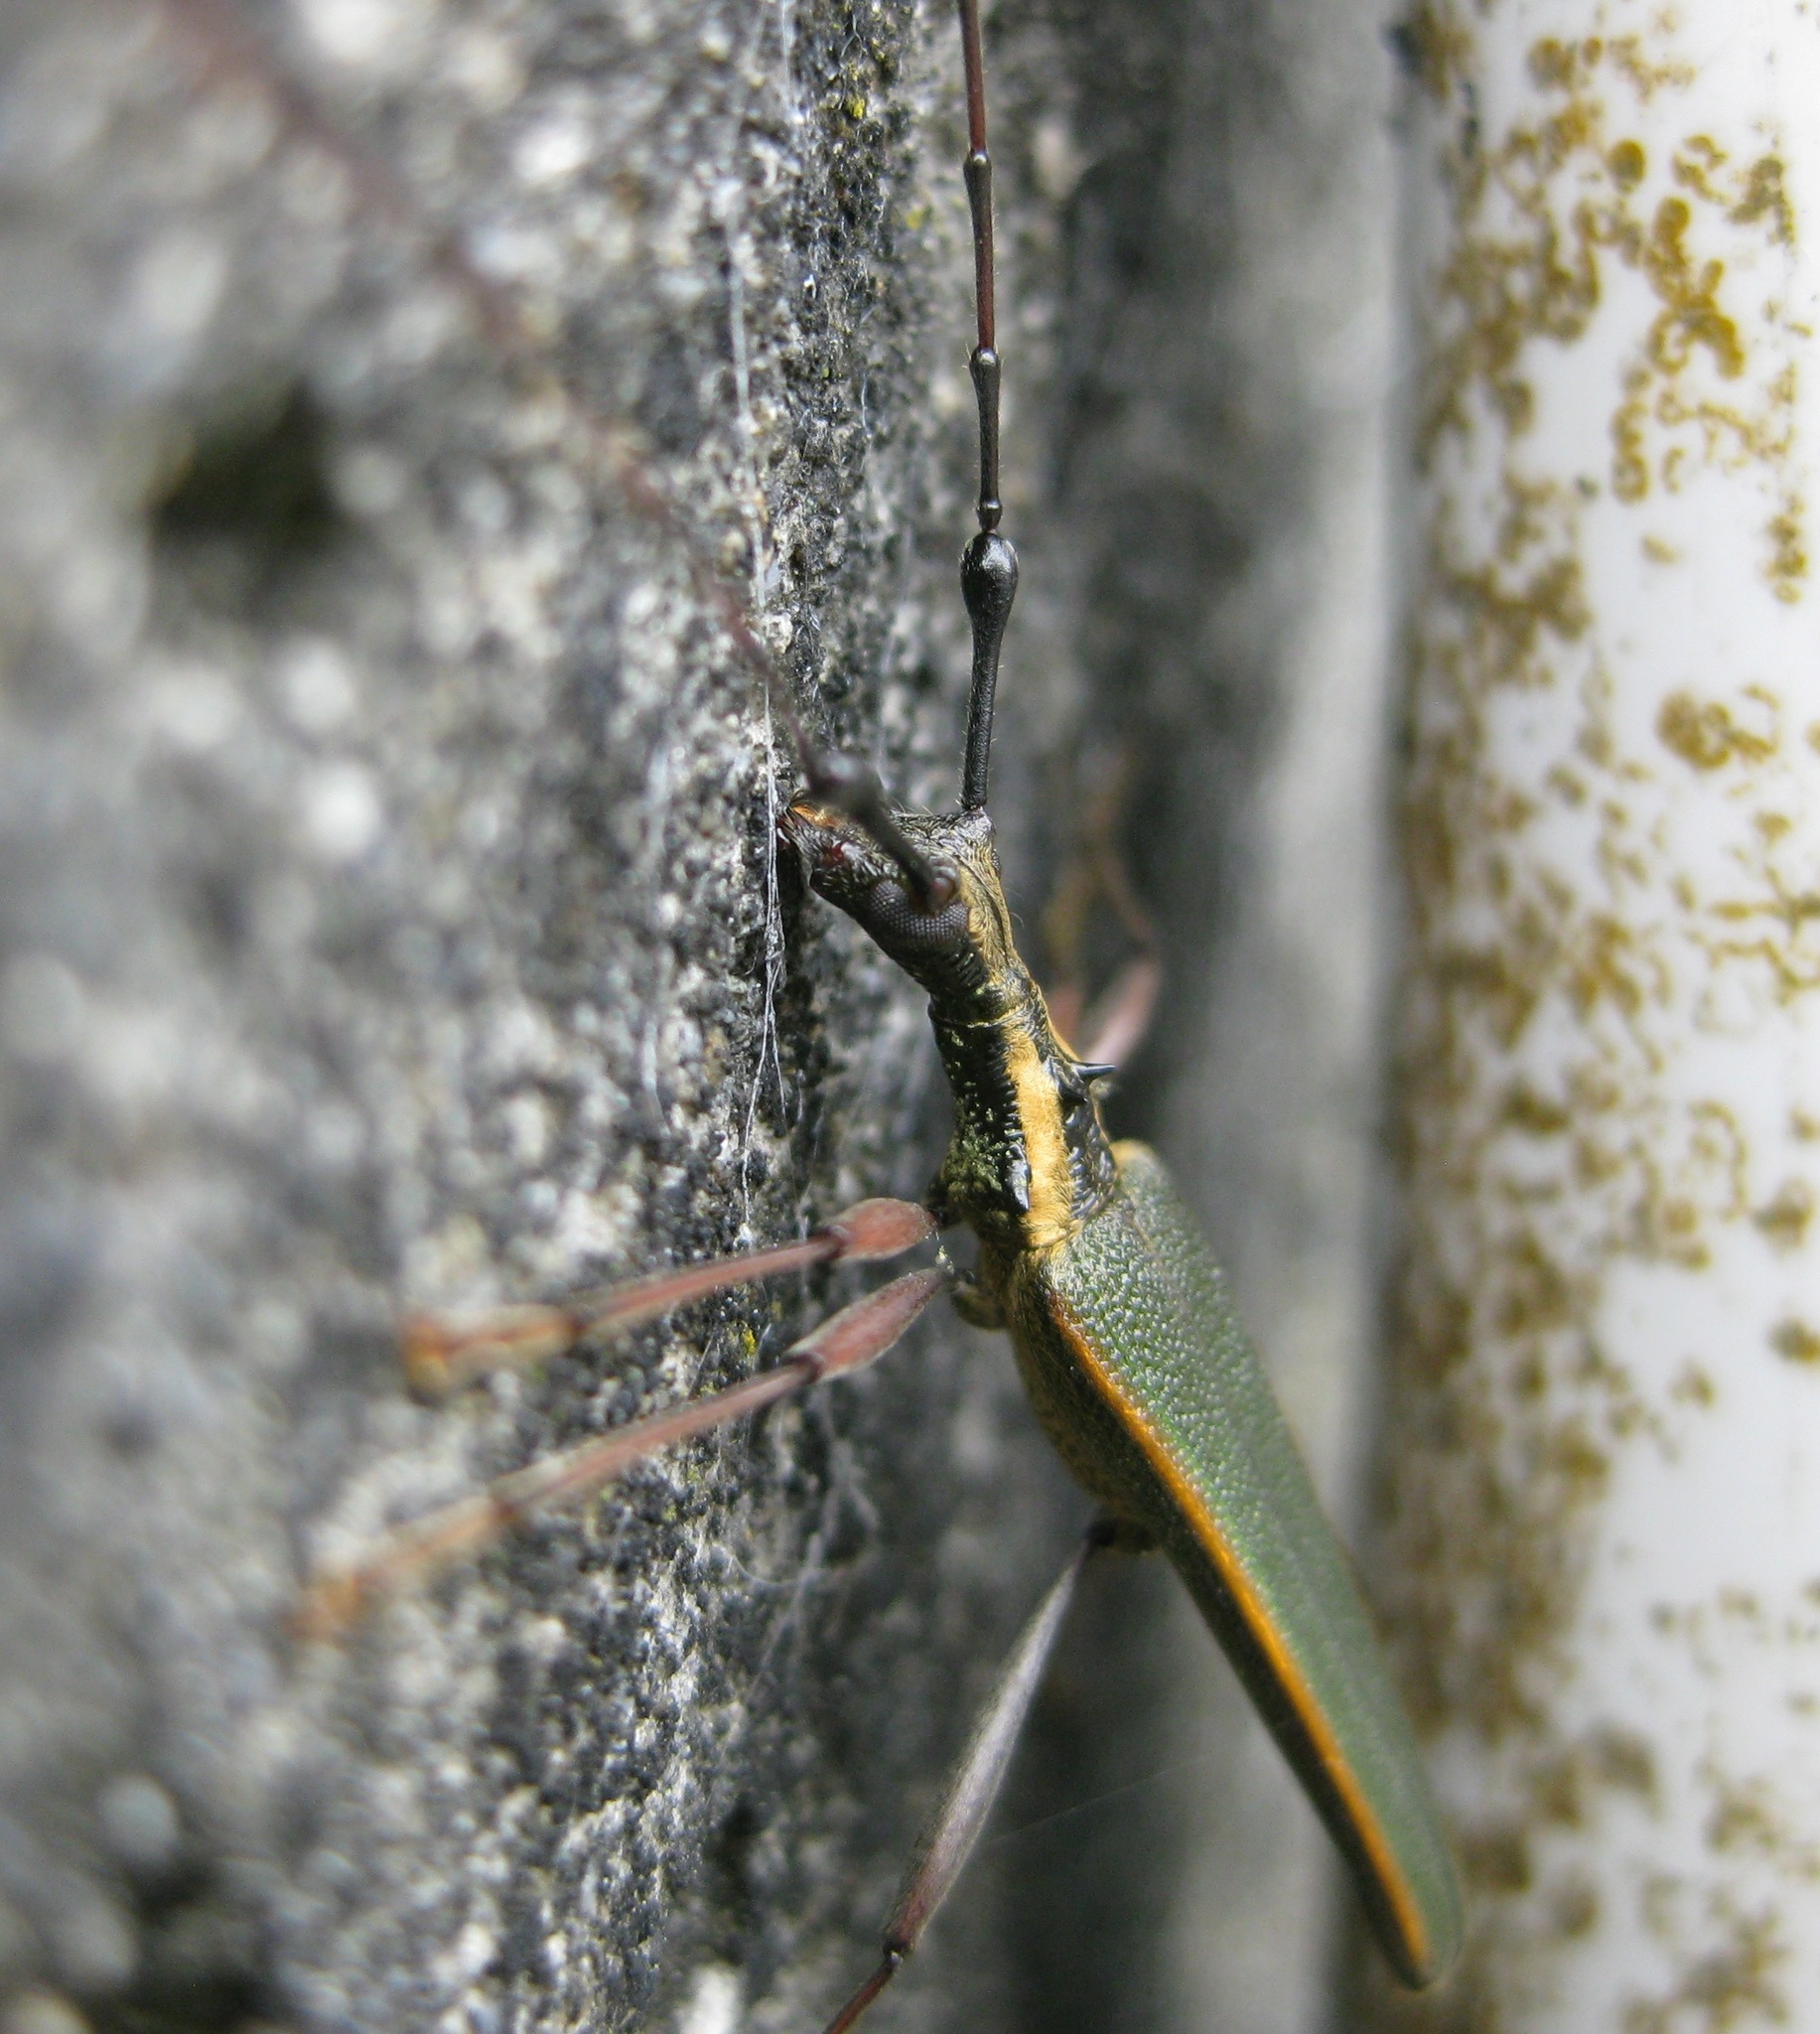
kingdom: Animalia
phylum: Arthropoda
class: Insecta
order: Coleoptera
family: Cerambycidae
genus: Calliprason
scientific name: Calliprason marginatum
